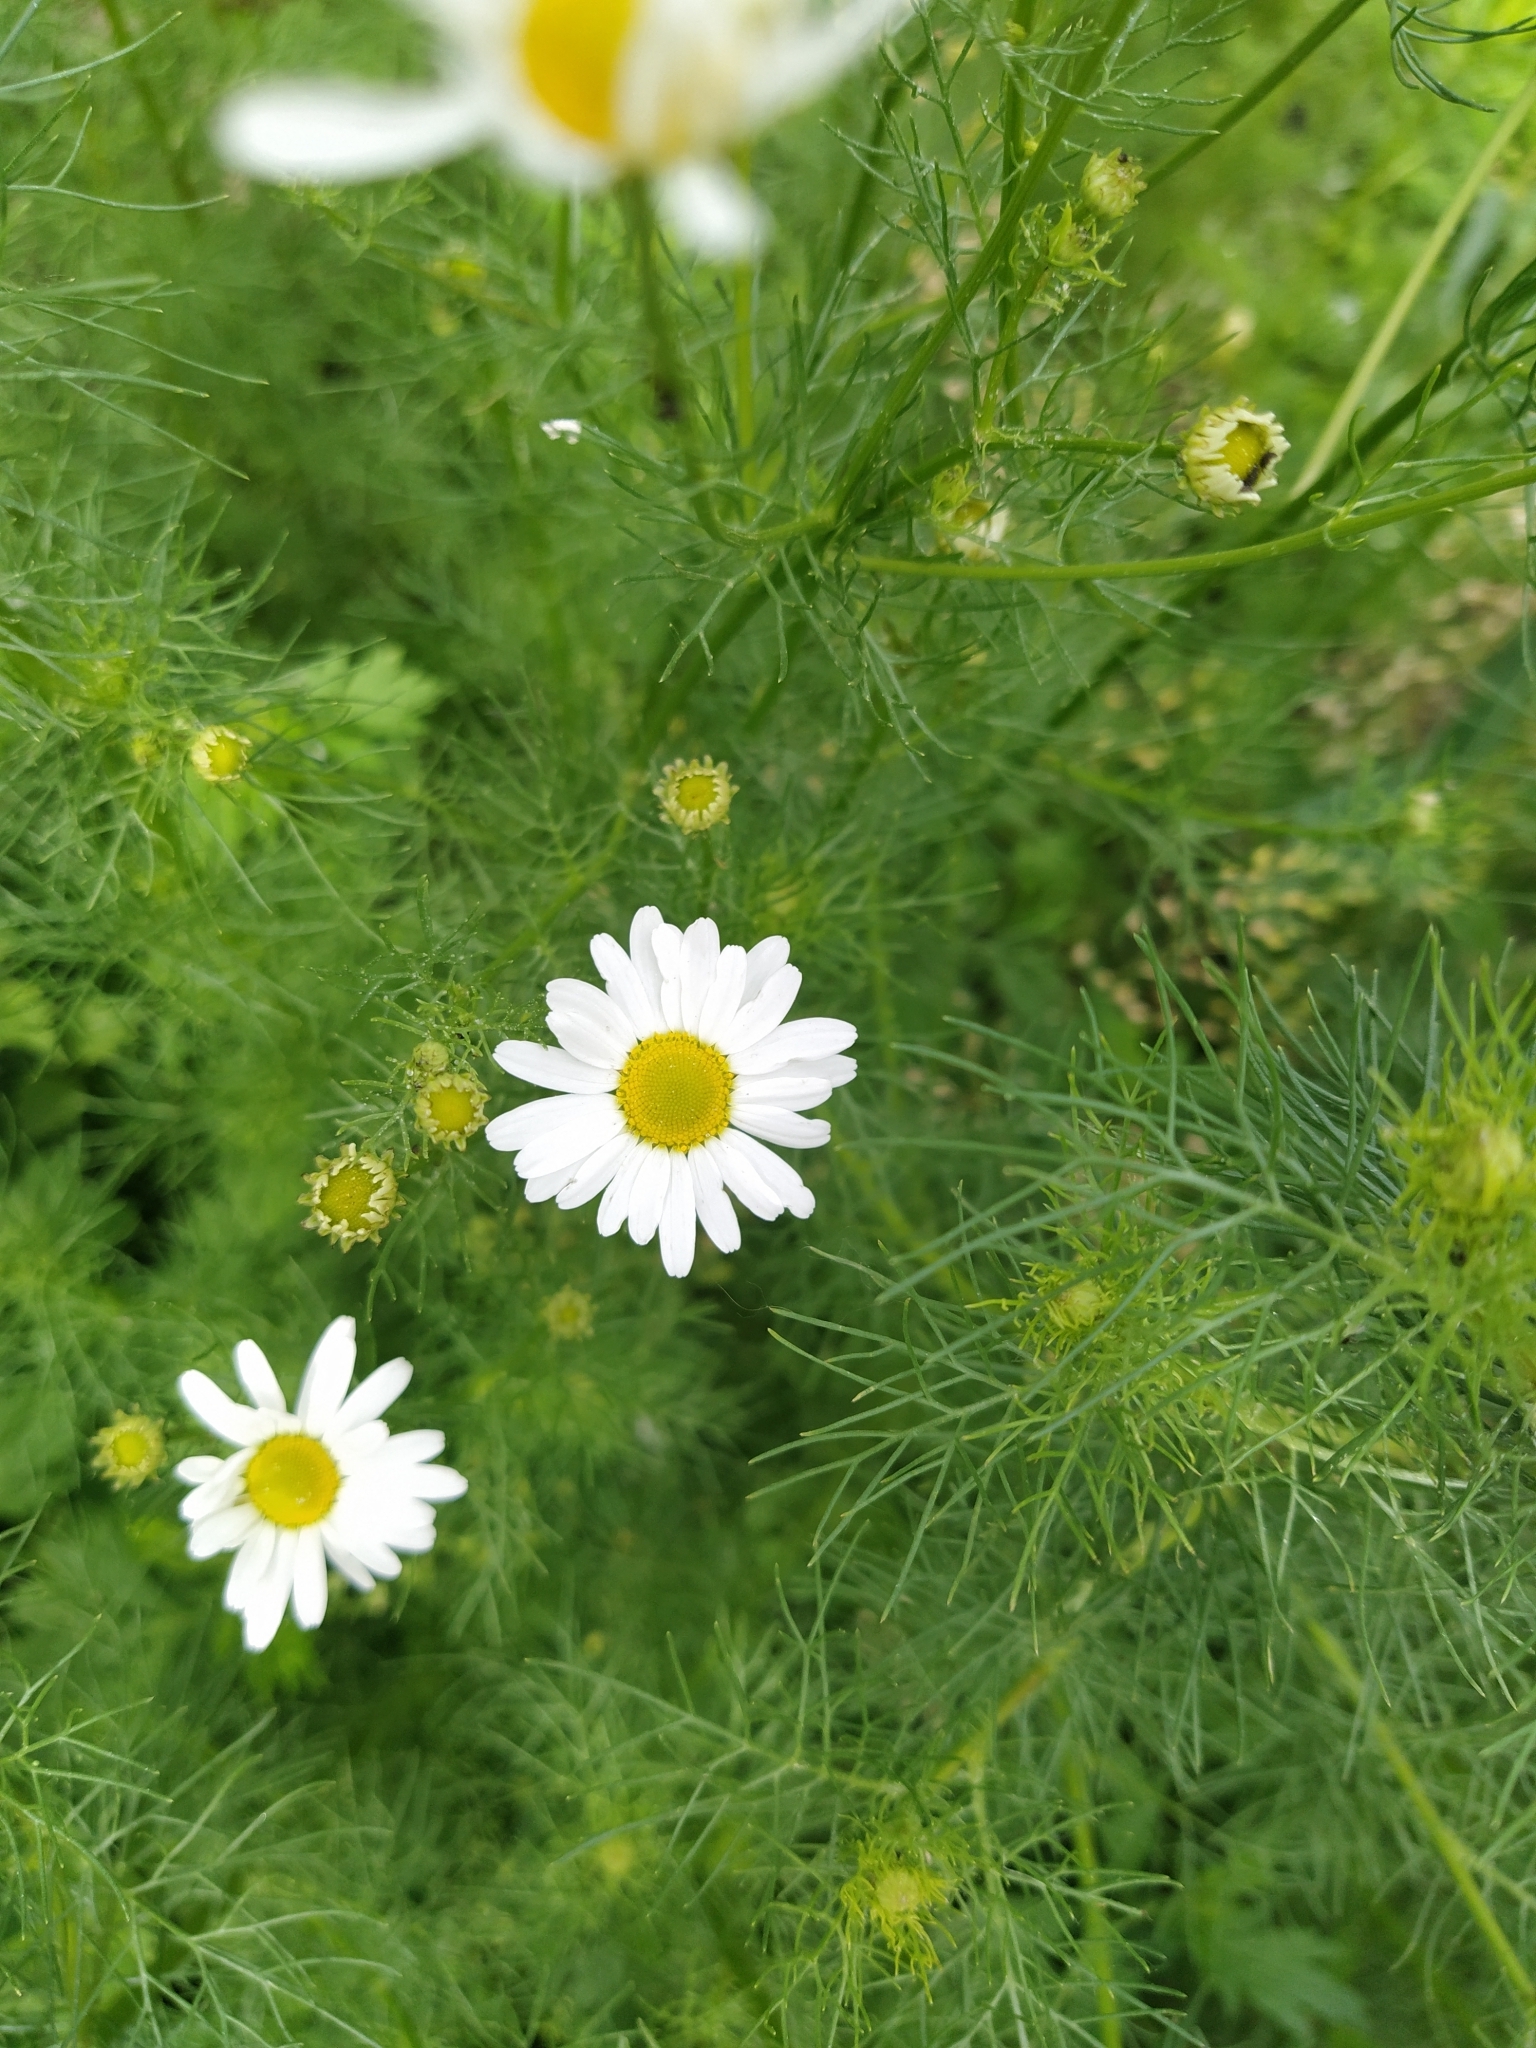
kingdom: Plantae
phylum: Tracheophyta
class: Magnoliopsida
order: Asterales
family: Asteraceae
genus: Tripleurospermum
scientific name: Tripleurospermum inodorum
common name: Scentless mayweed
